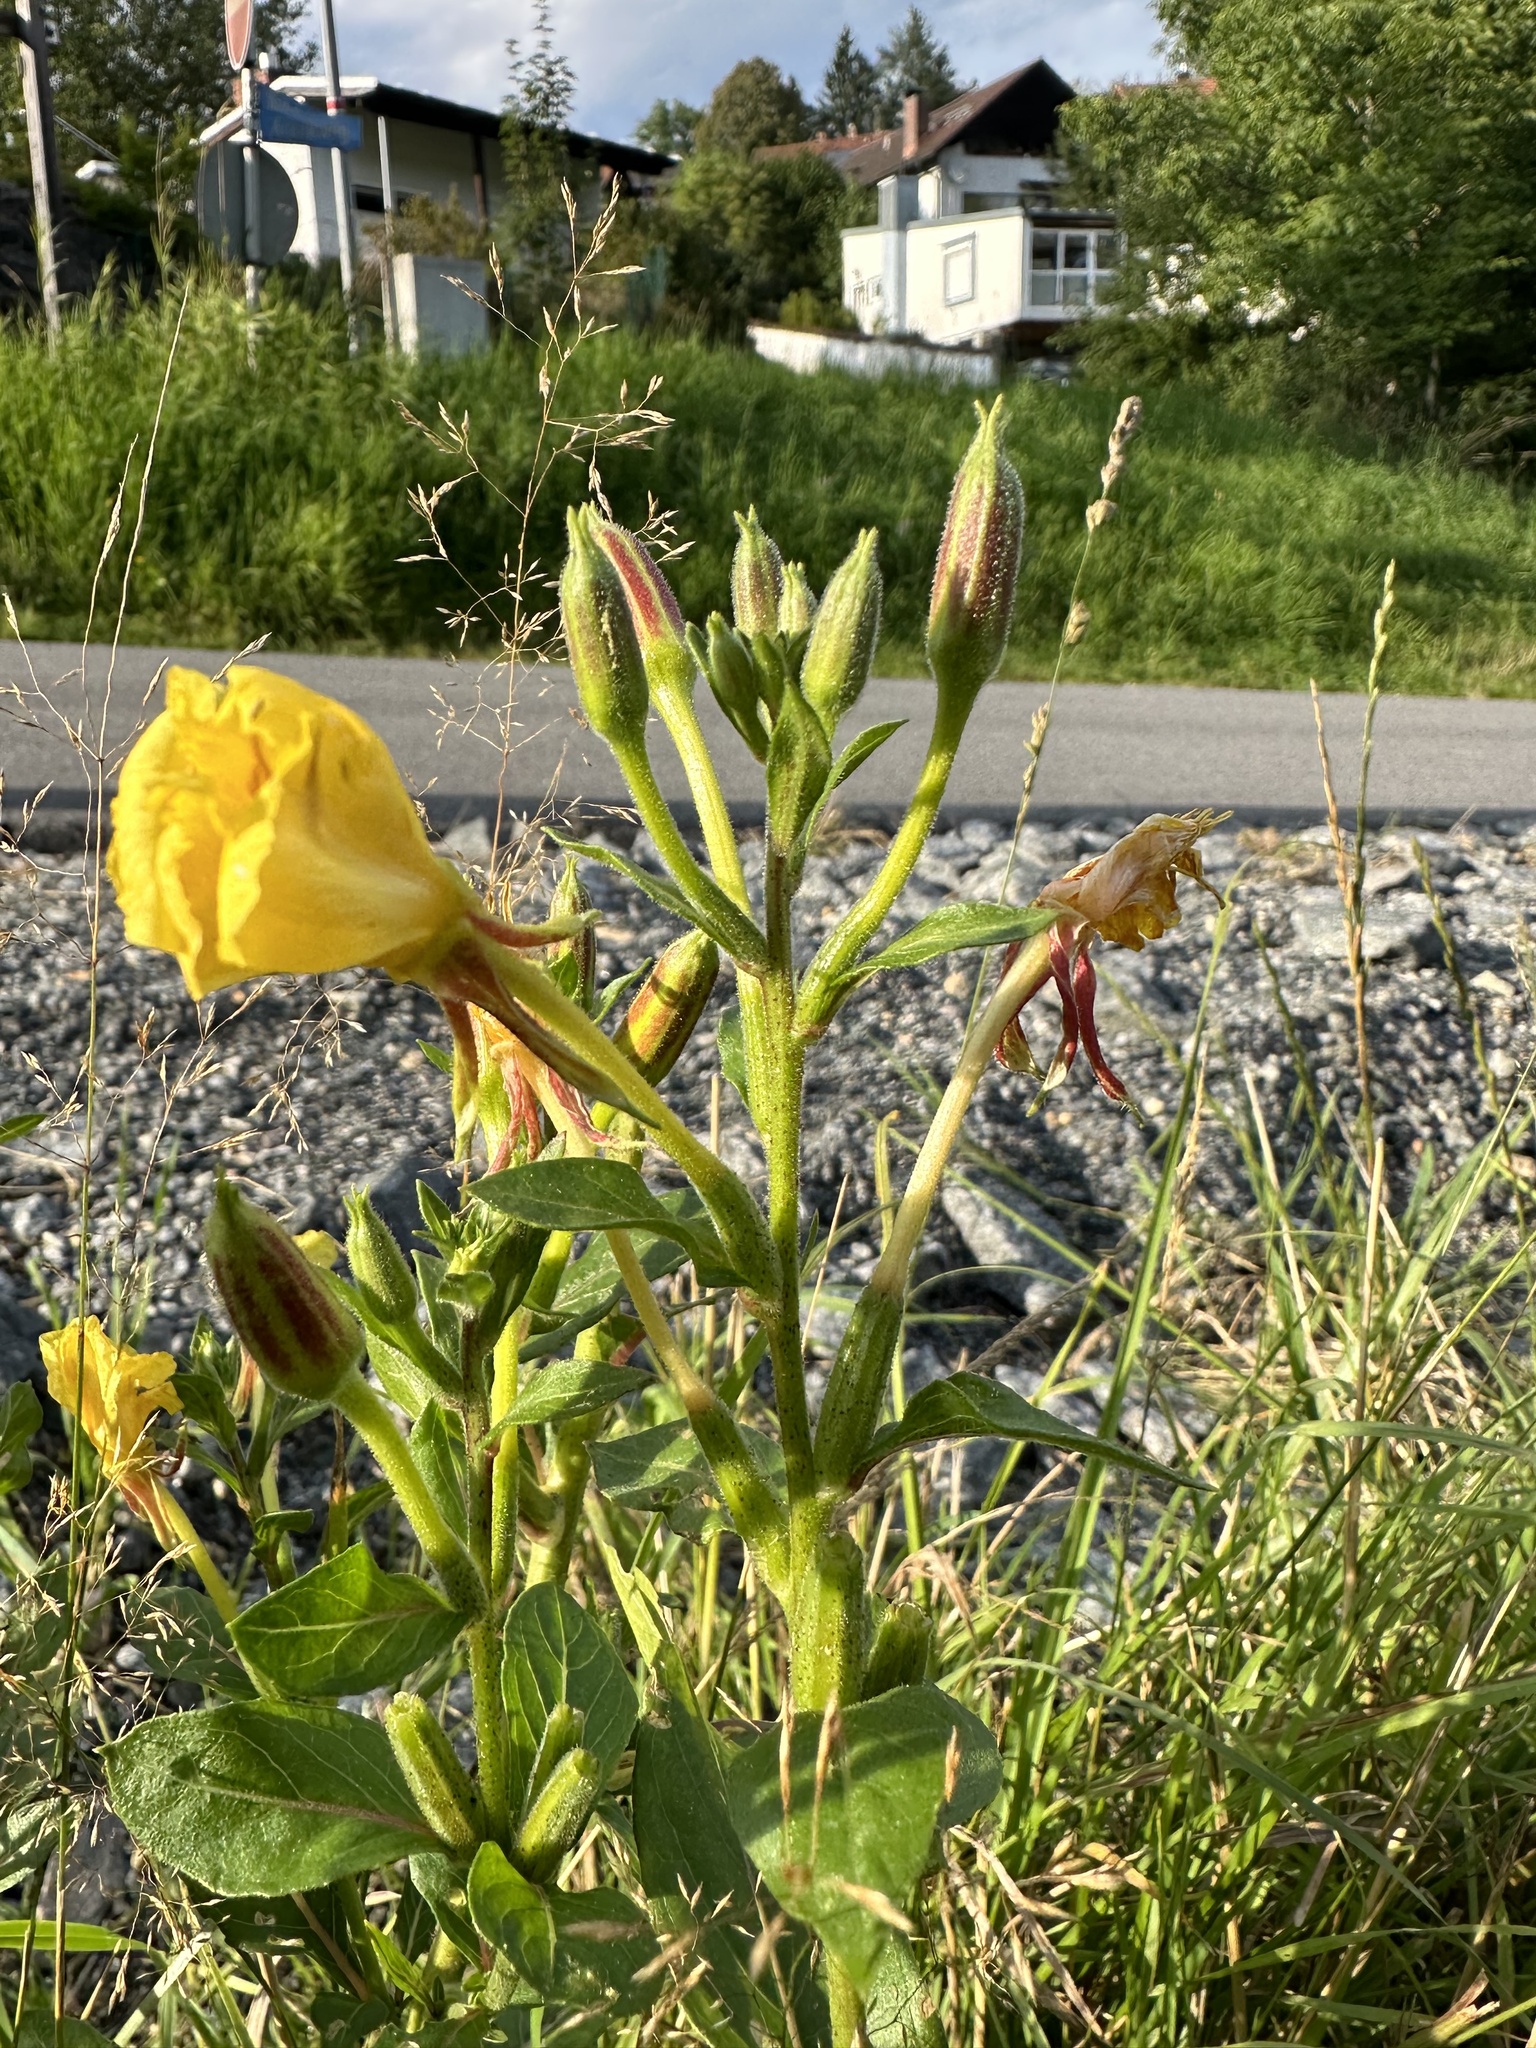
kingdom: Plantae
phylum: Tracheophyta
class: Magnoliopsida
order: Myrtales
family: Onagraceae
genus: Oenothera
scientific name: Oenothera fallax
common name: Intermediate evening-primrose
